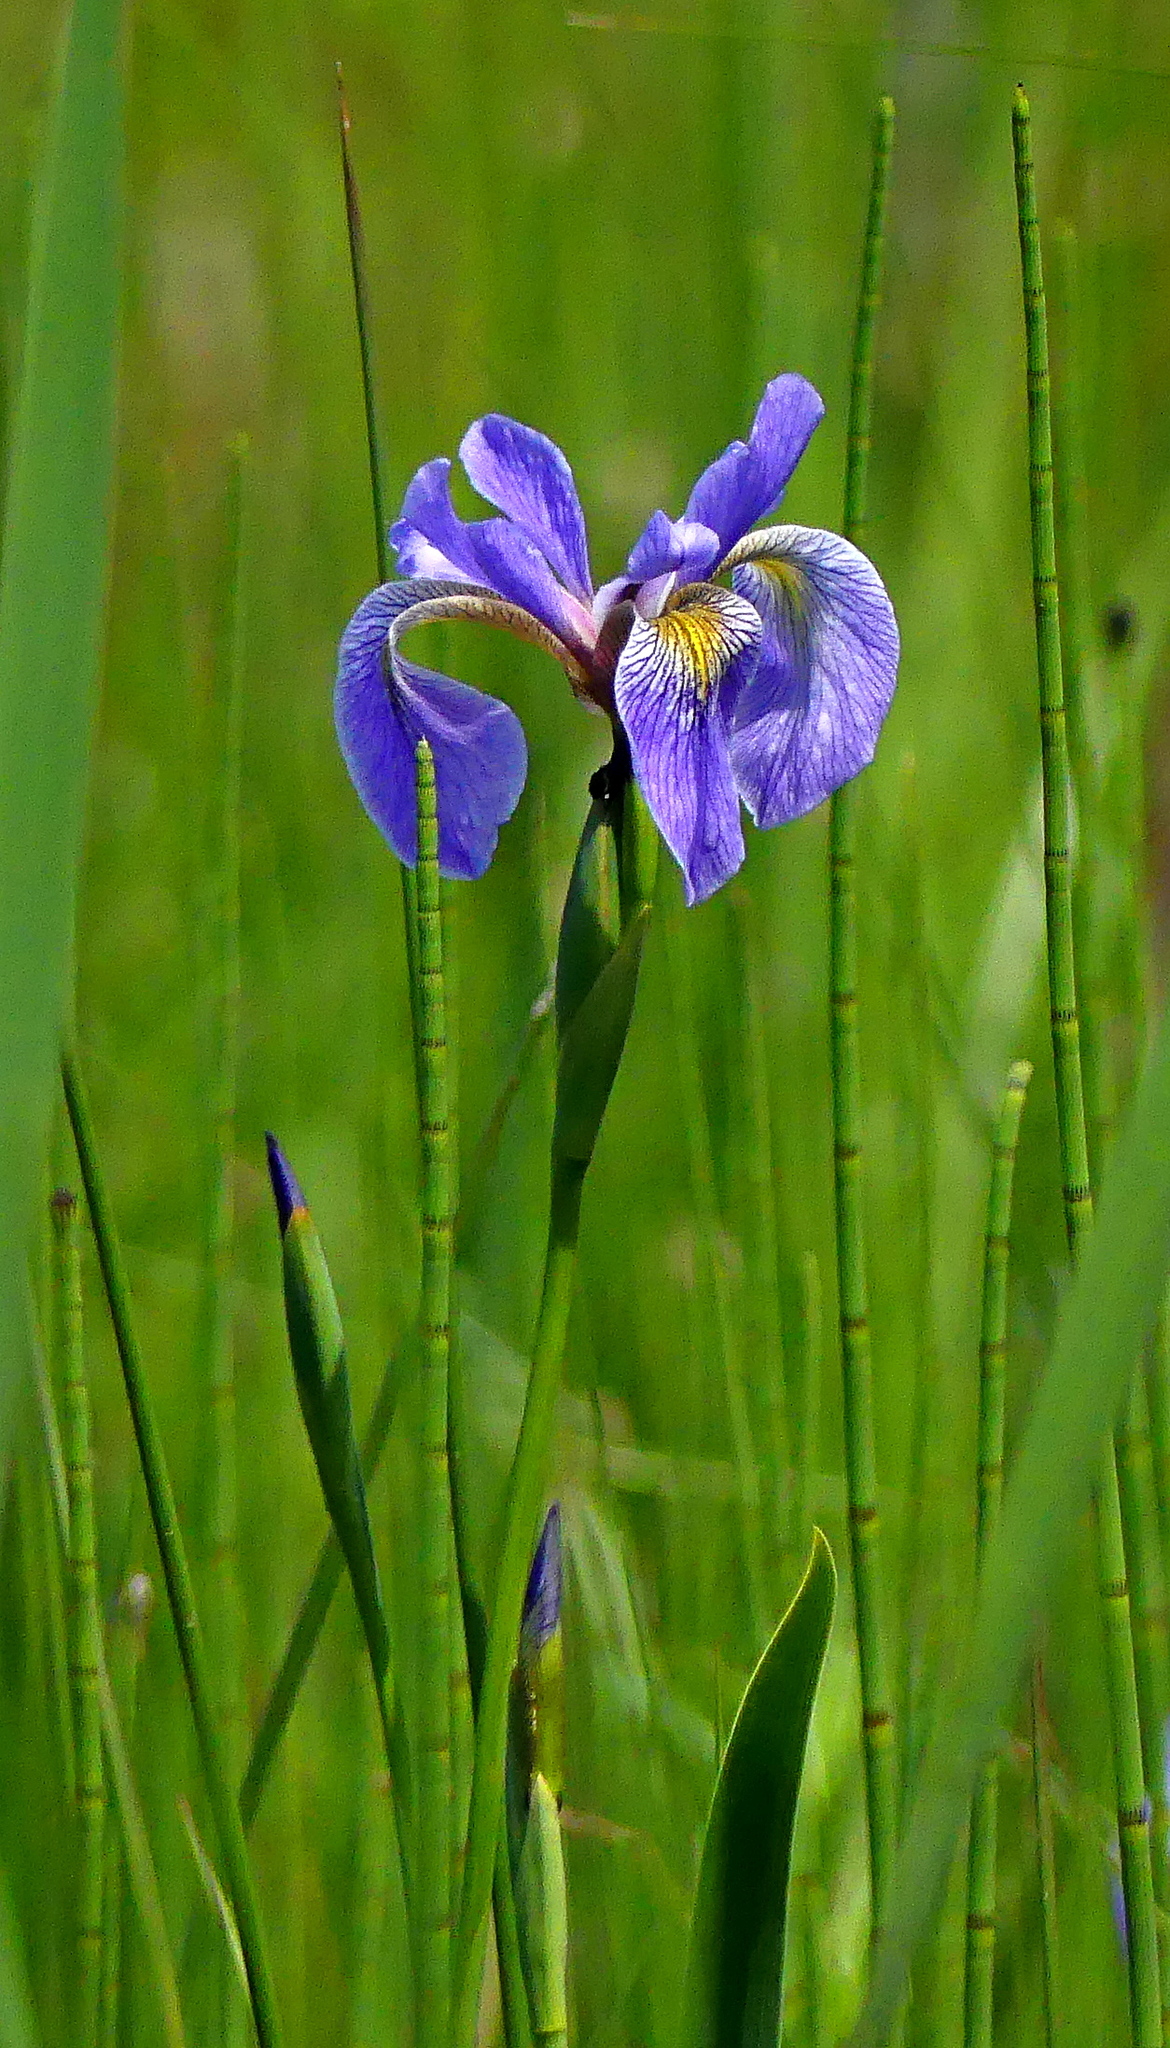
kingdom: Plantae
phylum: Tracheophyta
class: Liliopsida
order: Asparagales
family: Iridaceae
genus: Iris
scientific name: Iris versicolor
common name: Purple iris
